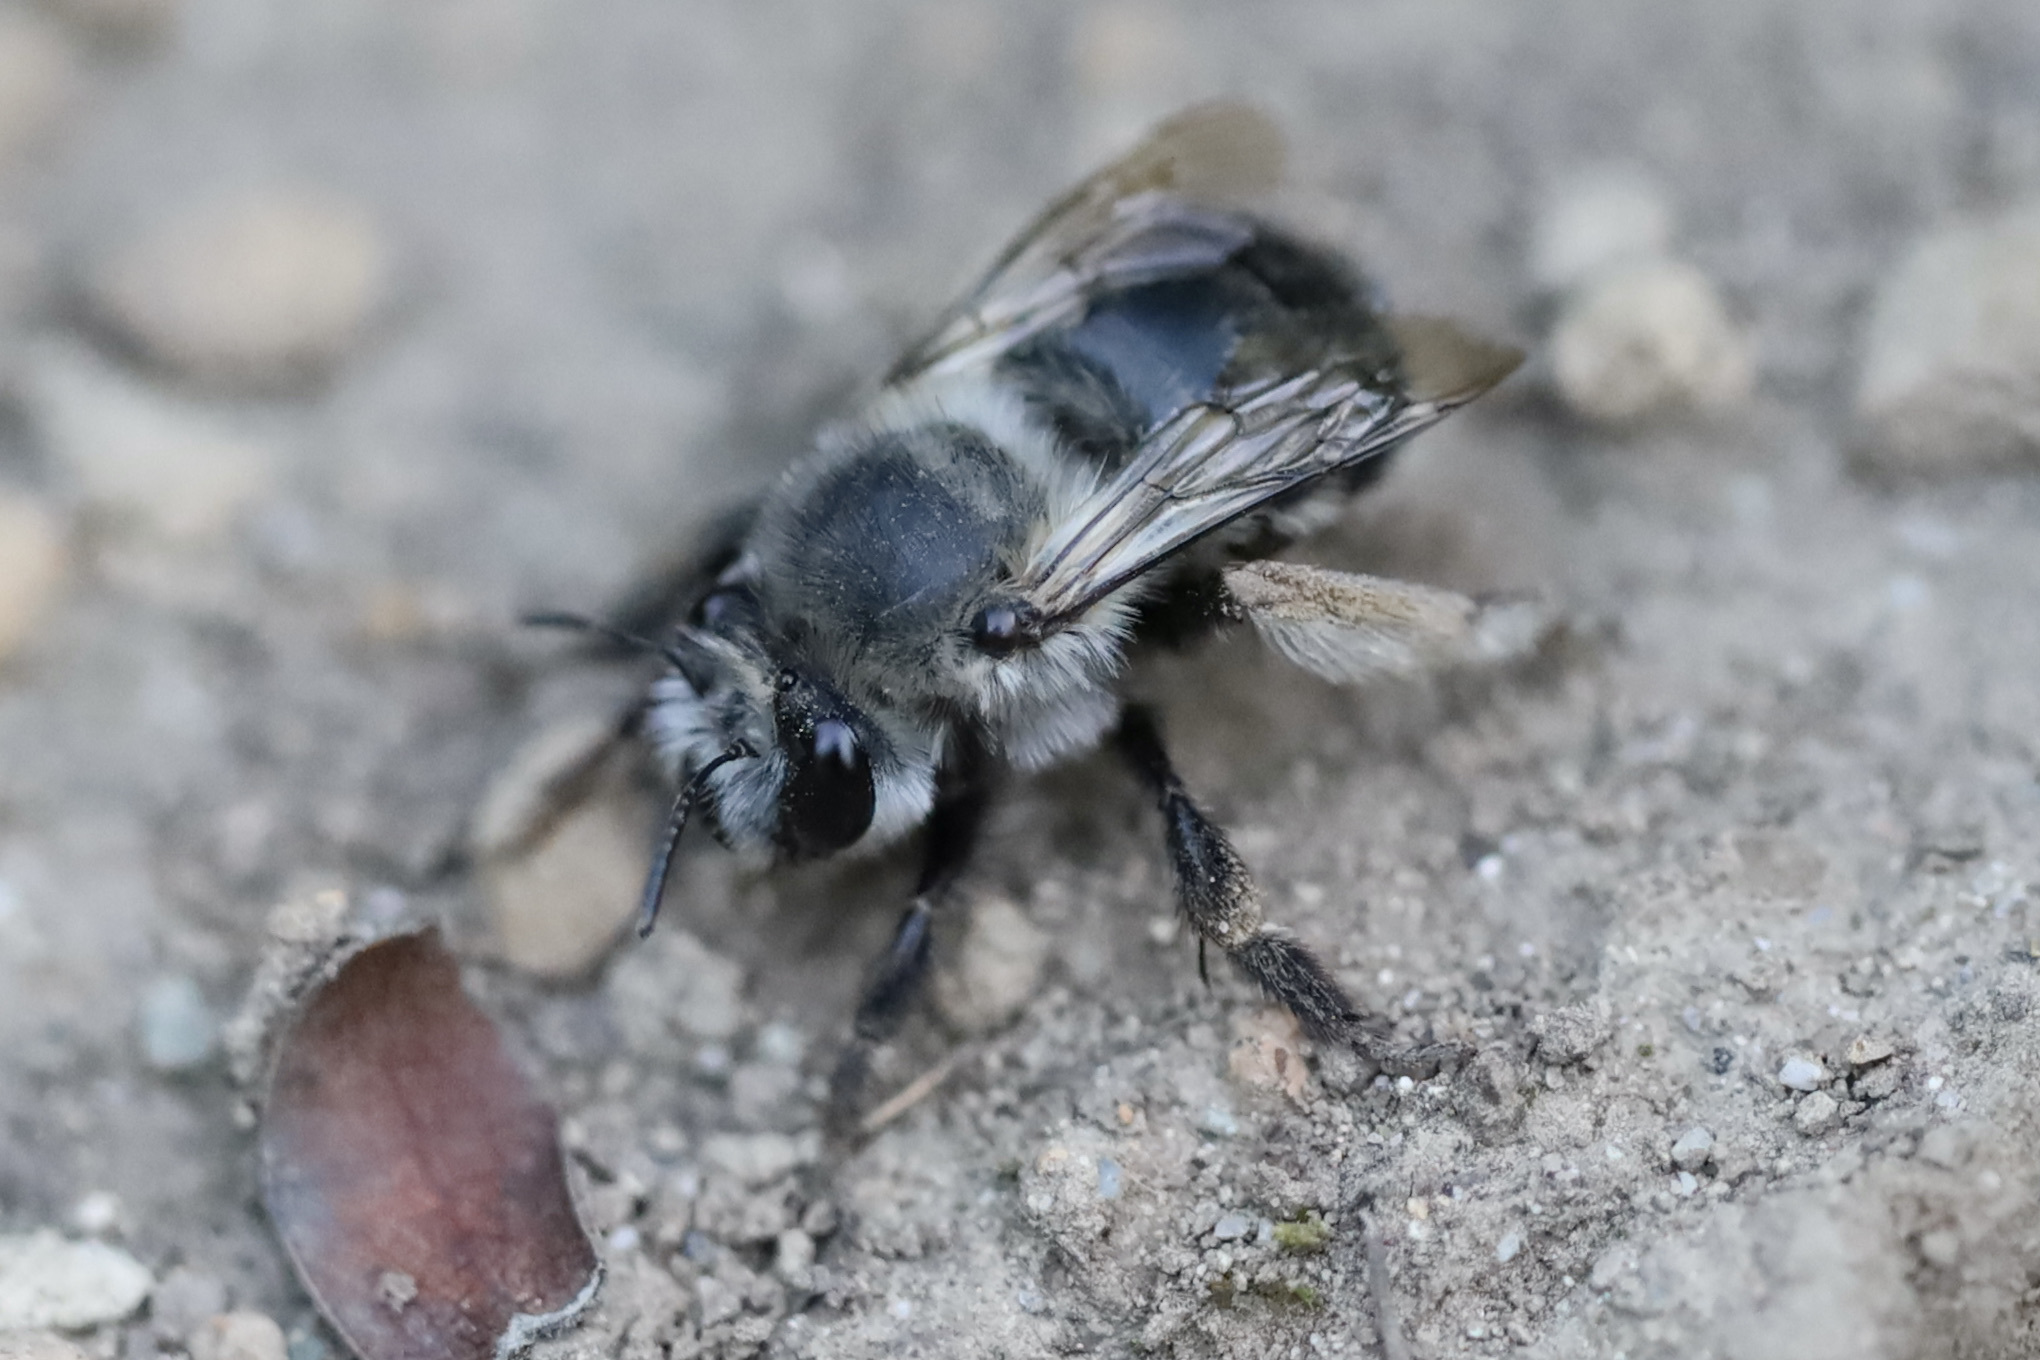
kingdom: Animalia
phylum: Arthropoda
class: Insecta
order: Hymenoptera
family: Apidae
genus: Anthophora
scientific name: Anthophora pacifica
